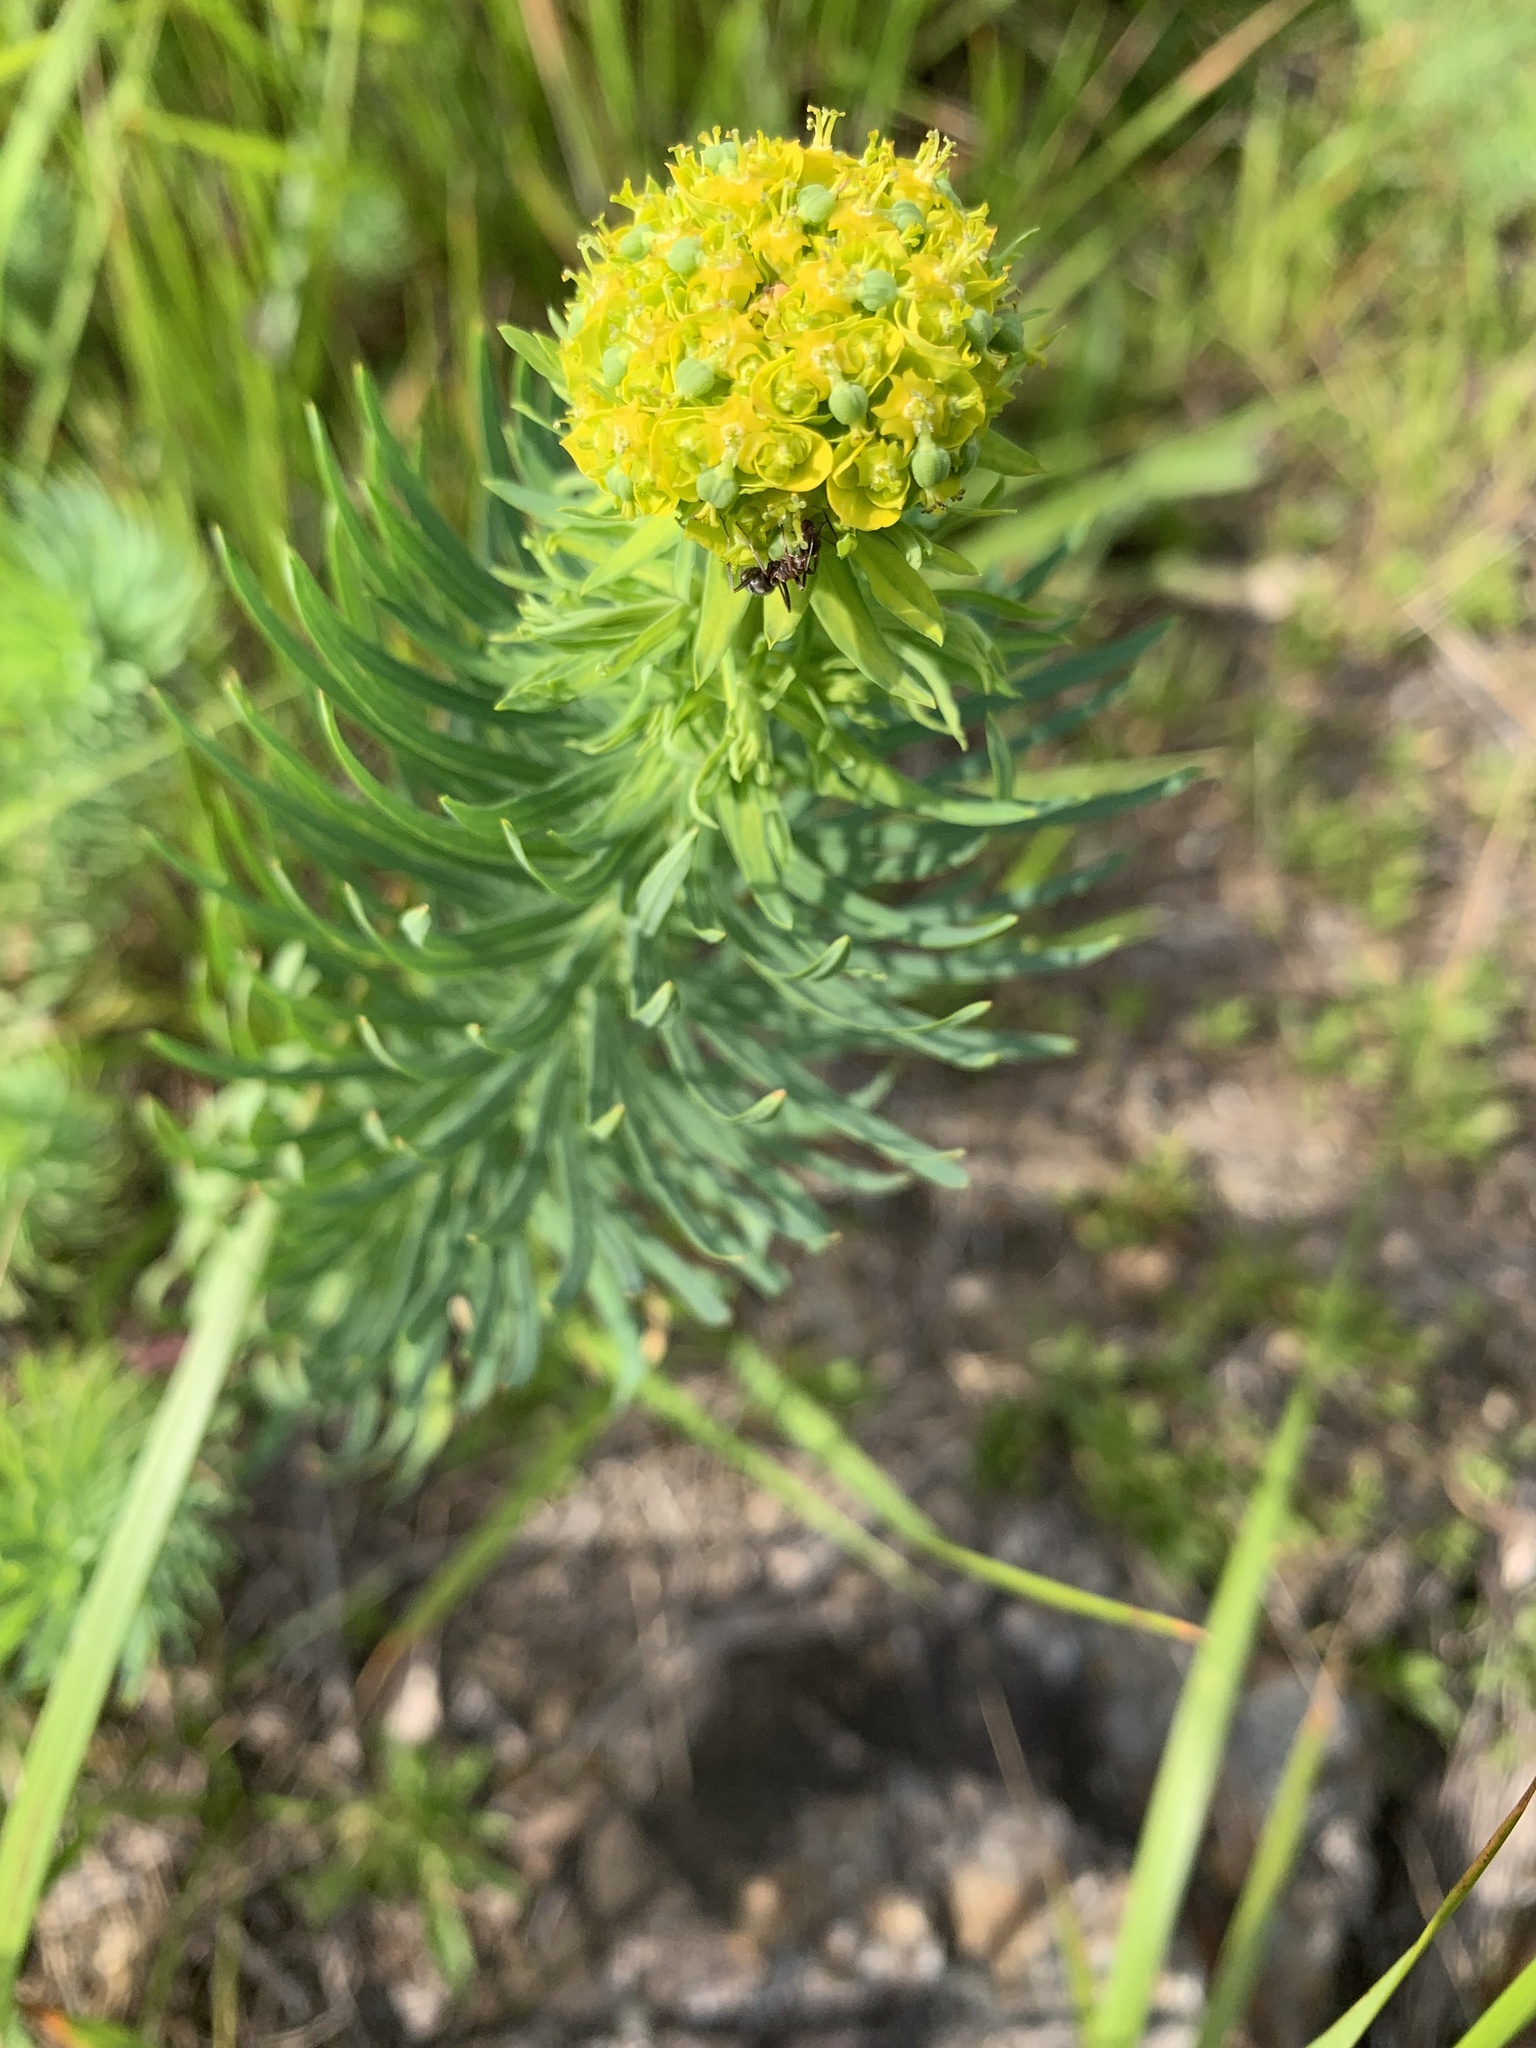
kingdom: Plantae
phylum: Tracheophyta
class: Magnoliopsida
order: Malpighiales
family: Euphorbiaceae
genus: Euphorbia
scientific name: Euphorbia cyparissias
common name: Cypress spurge
